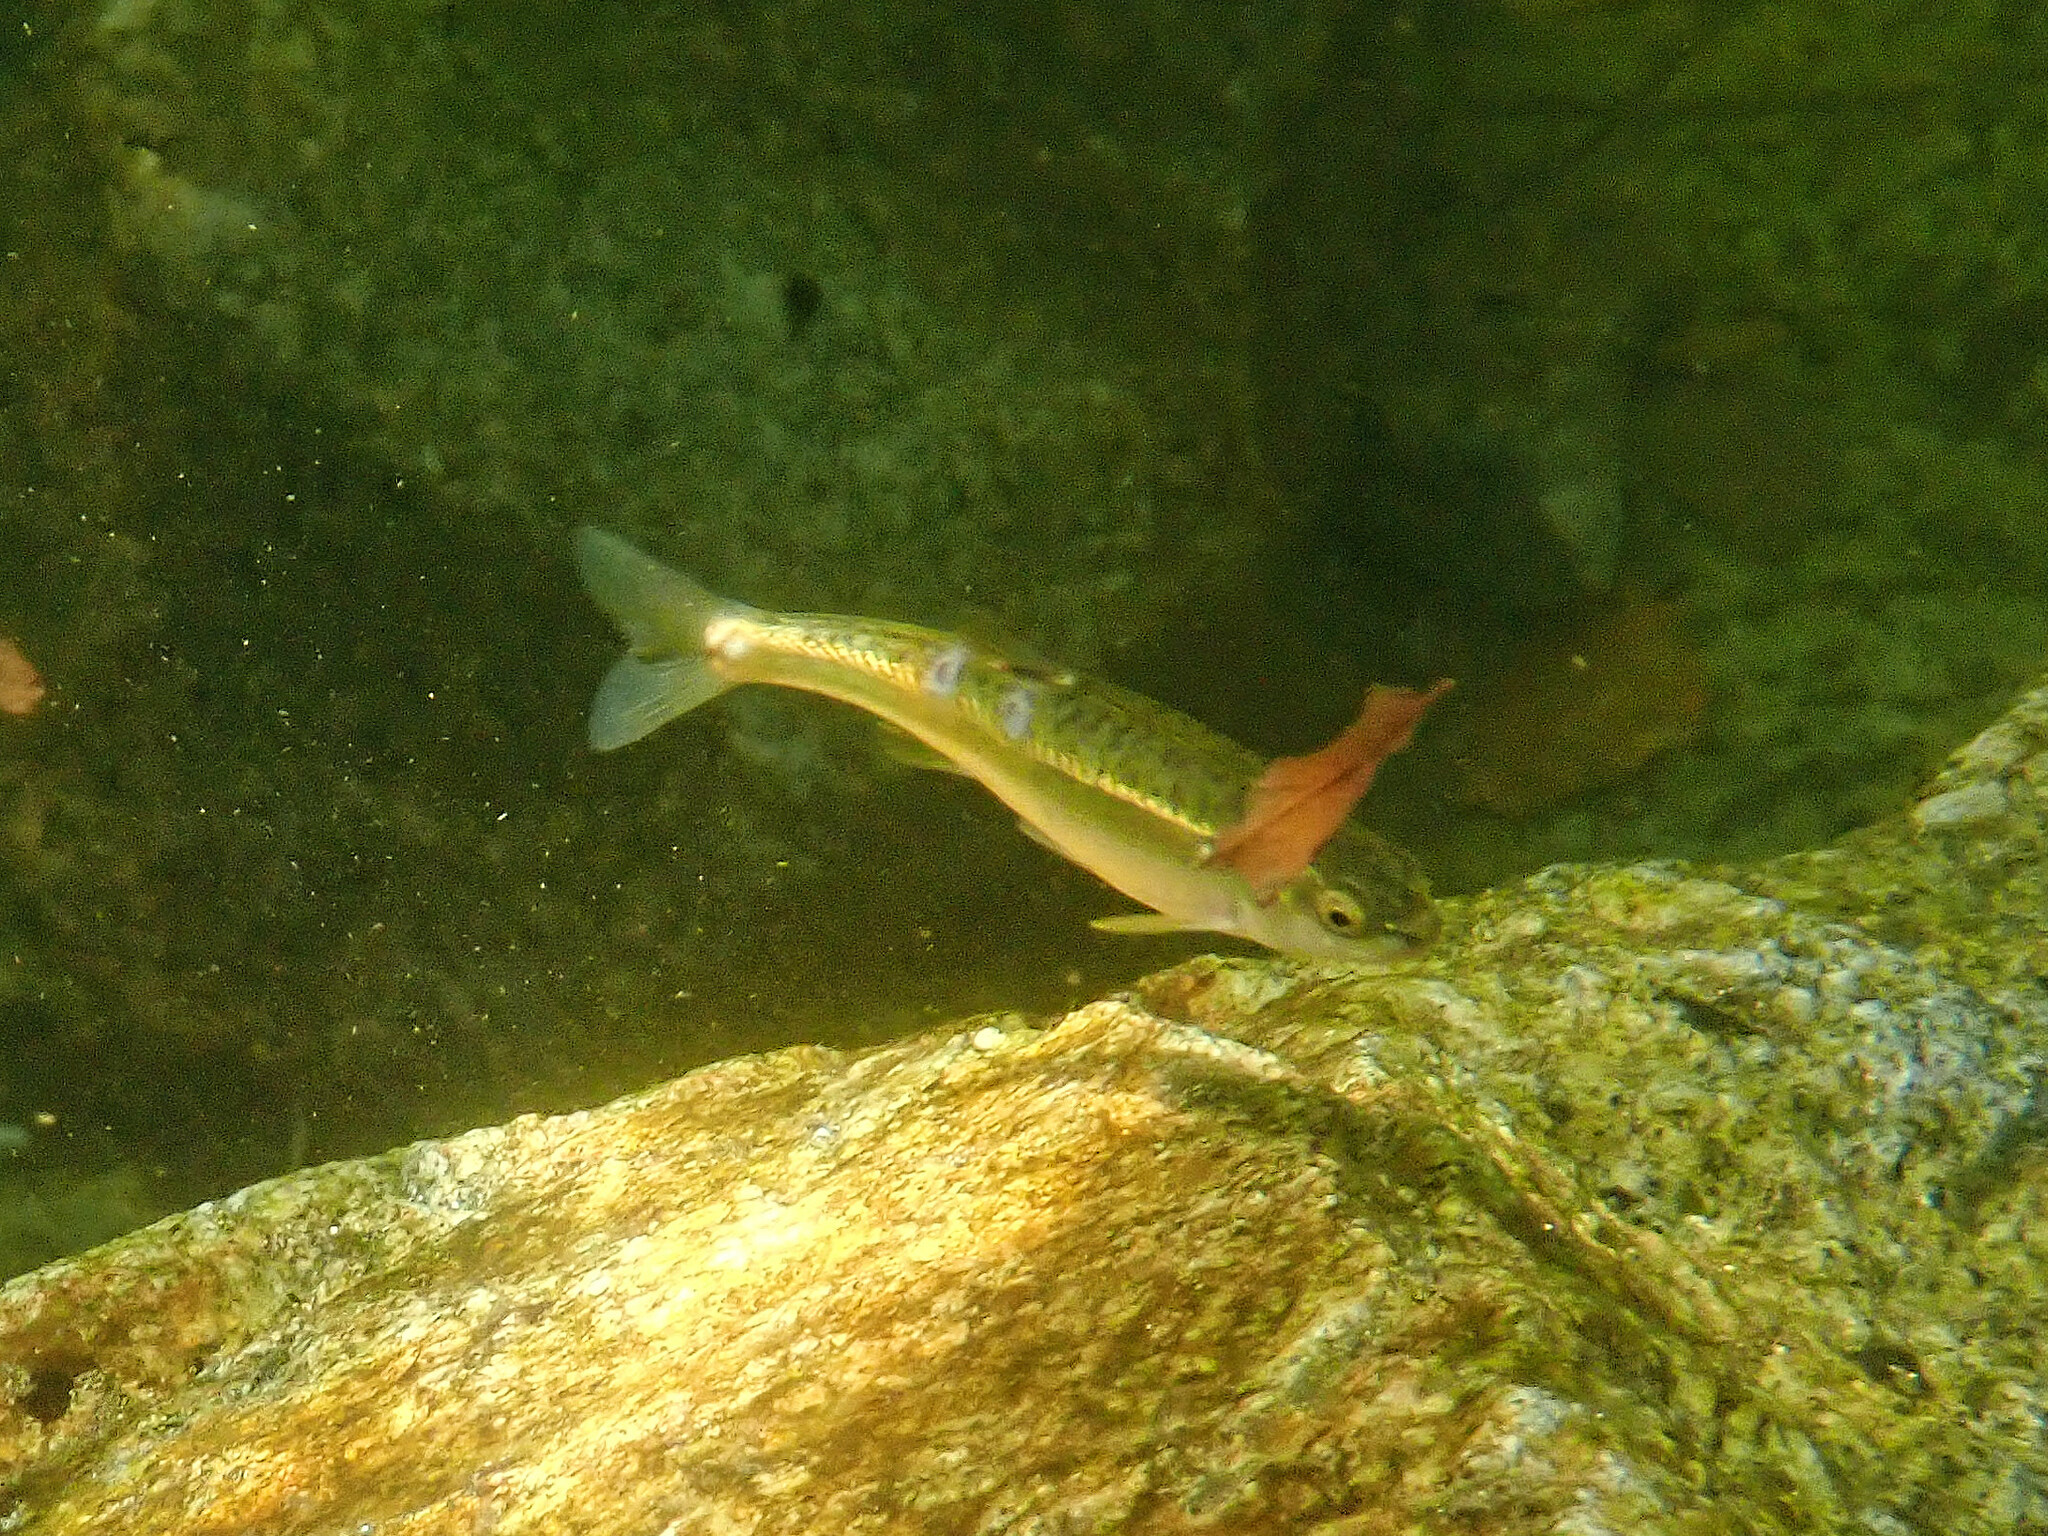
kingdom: Animalia
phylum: Chordata
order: Cypriniformes
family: Cyprinidae
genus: Phoxinus
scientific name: Phoxinus septimaniae
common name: Languedoc minnow
